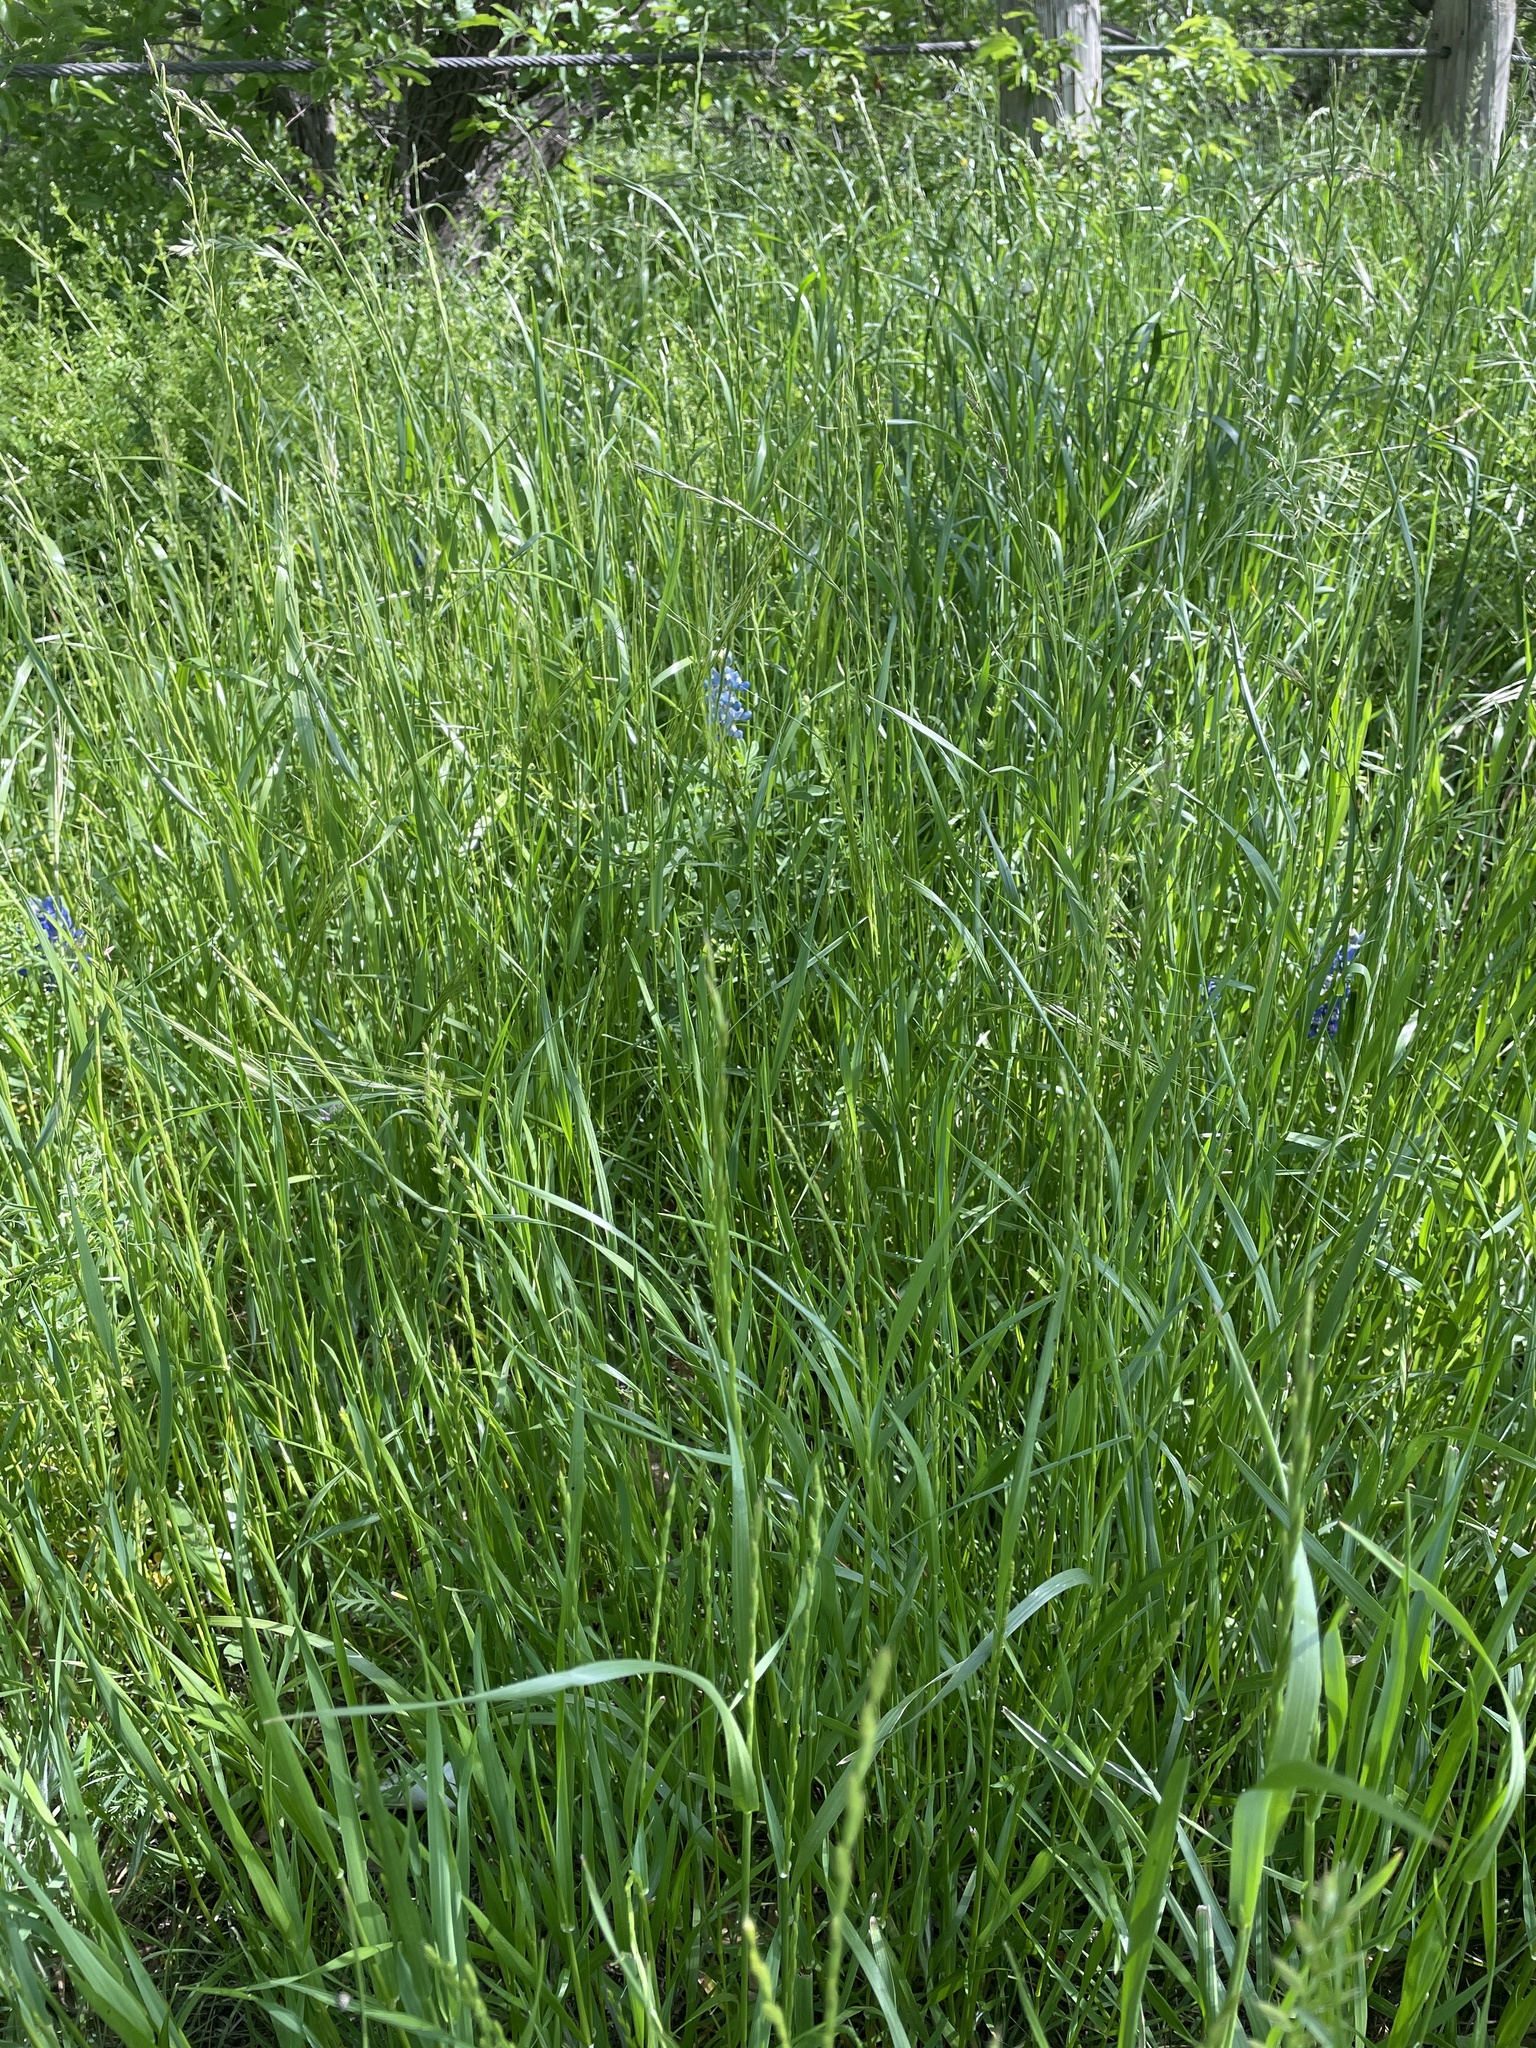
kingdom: Plantae
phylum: Tracheophyta
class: Liliopsida
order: Poales
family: Poaceae
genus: Lolium
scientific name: Lolium perenne
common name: Perennial ryegrass
